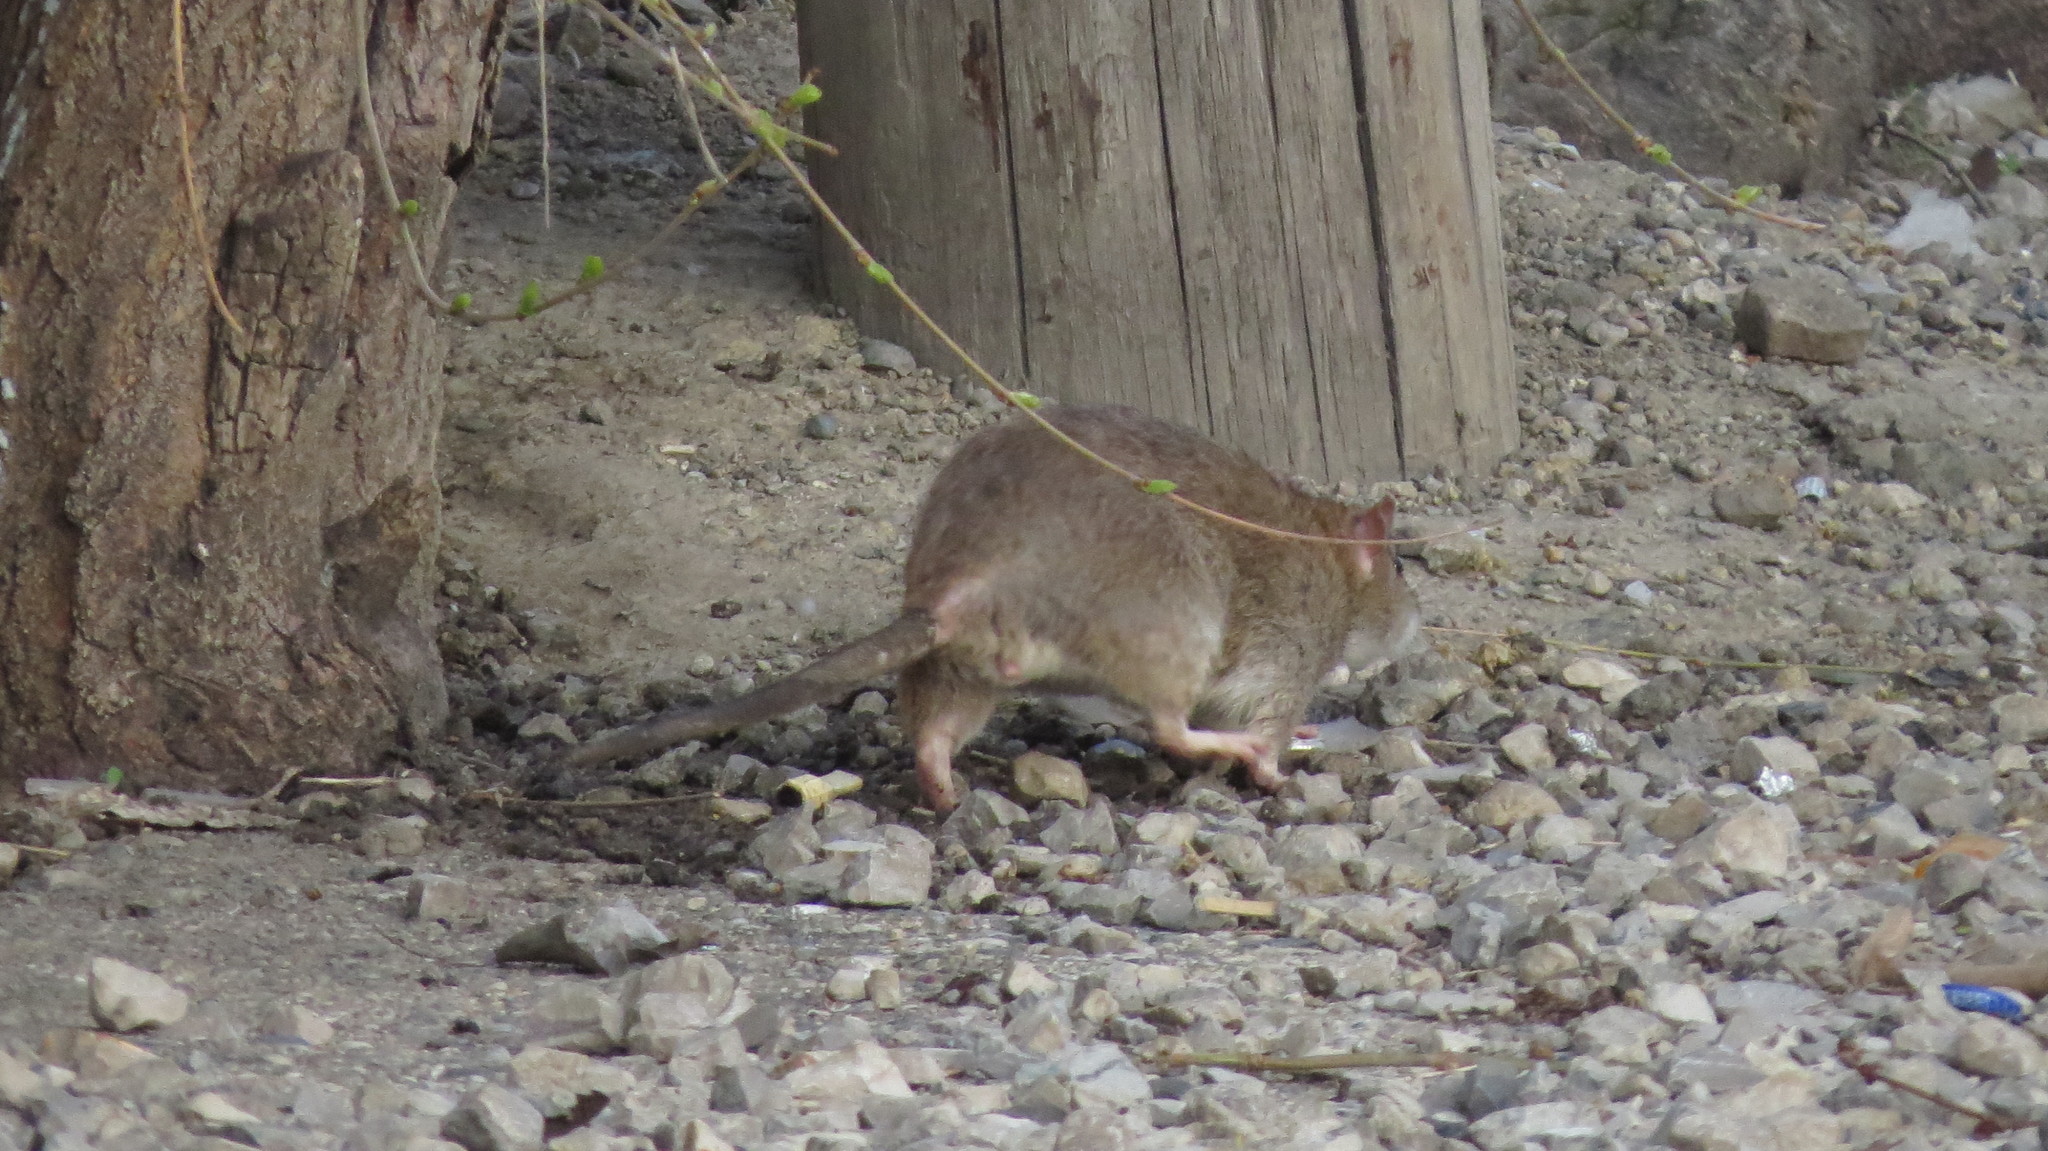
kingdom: Animalia
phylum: Chordata
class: Mammalia
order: Rodentia
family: Muridae
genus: Rattus
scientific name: Rattus norvegicus
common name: Brown rat
